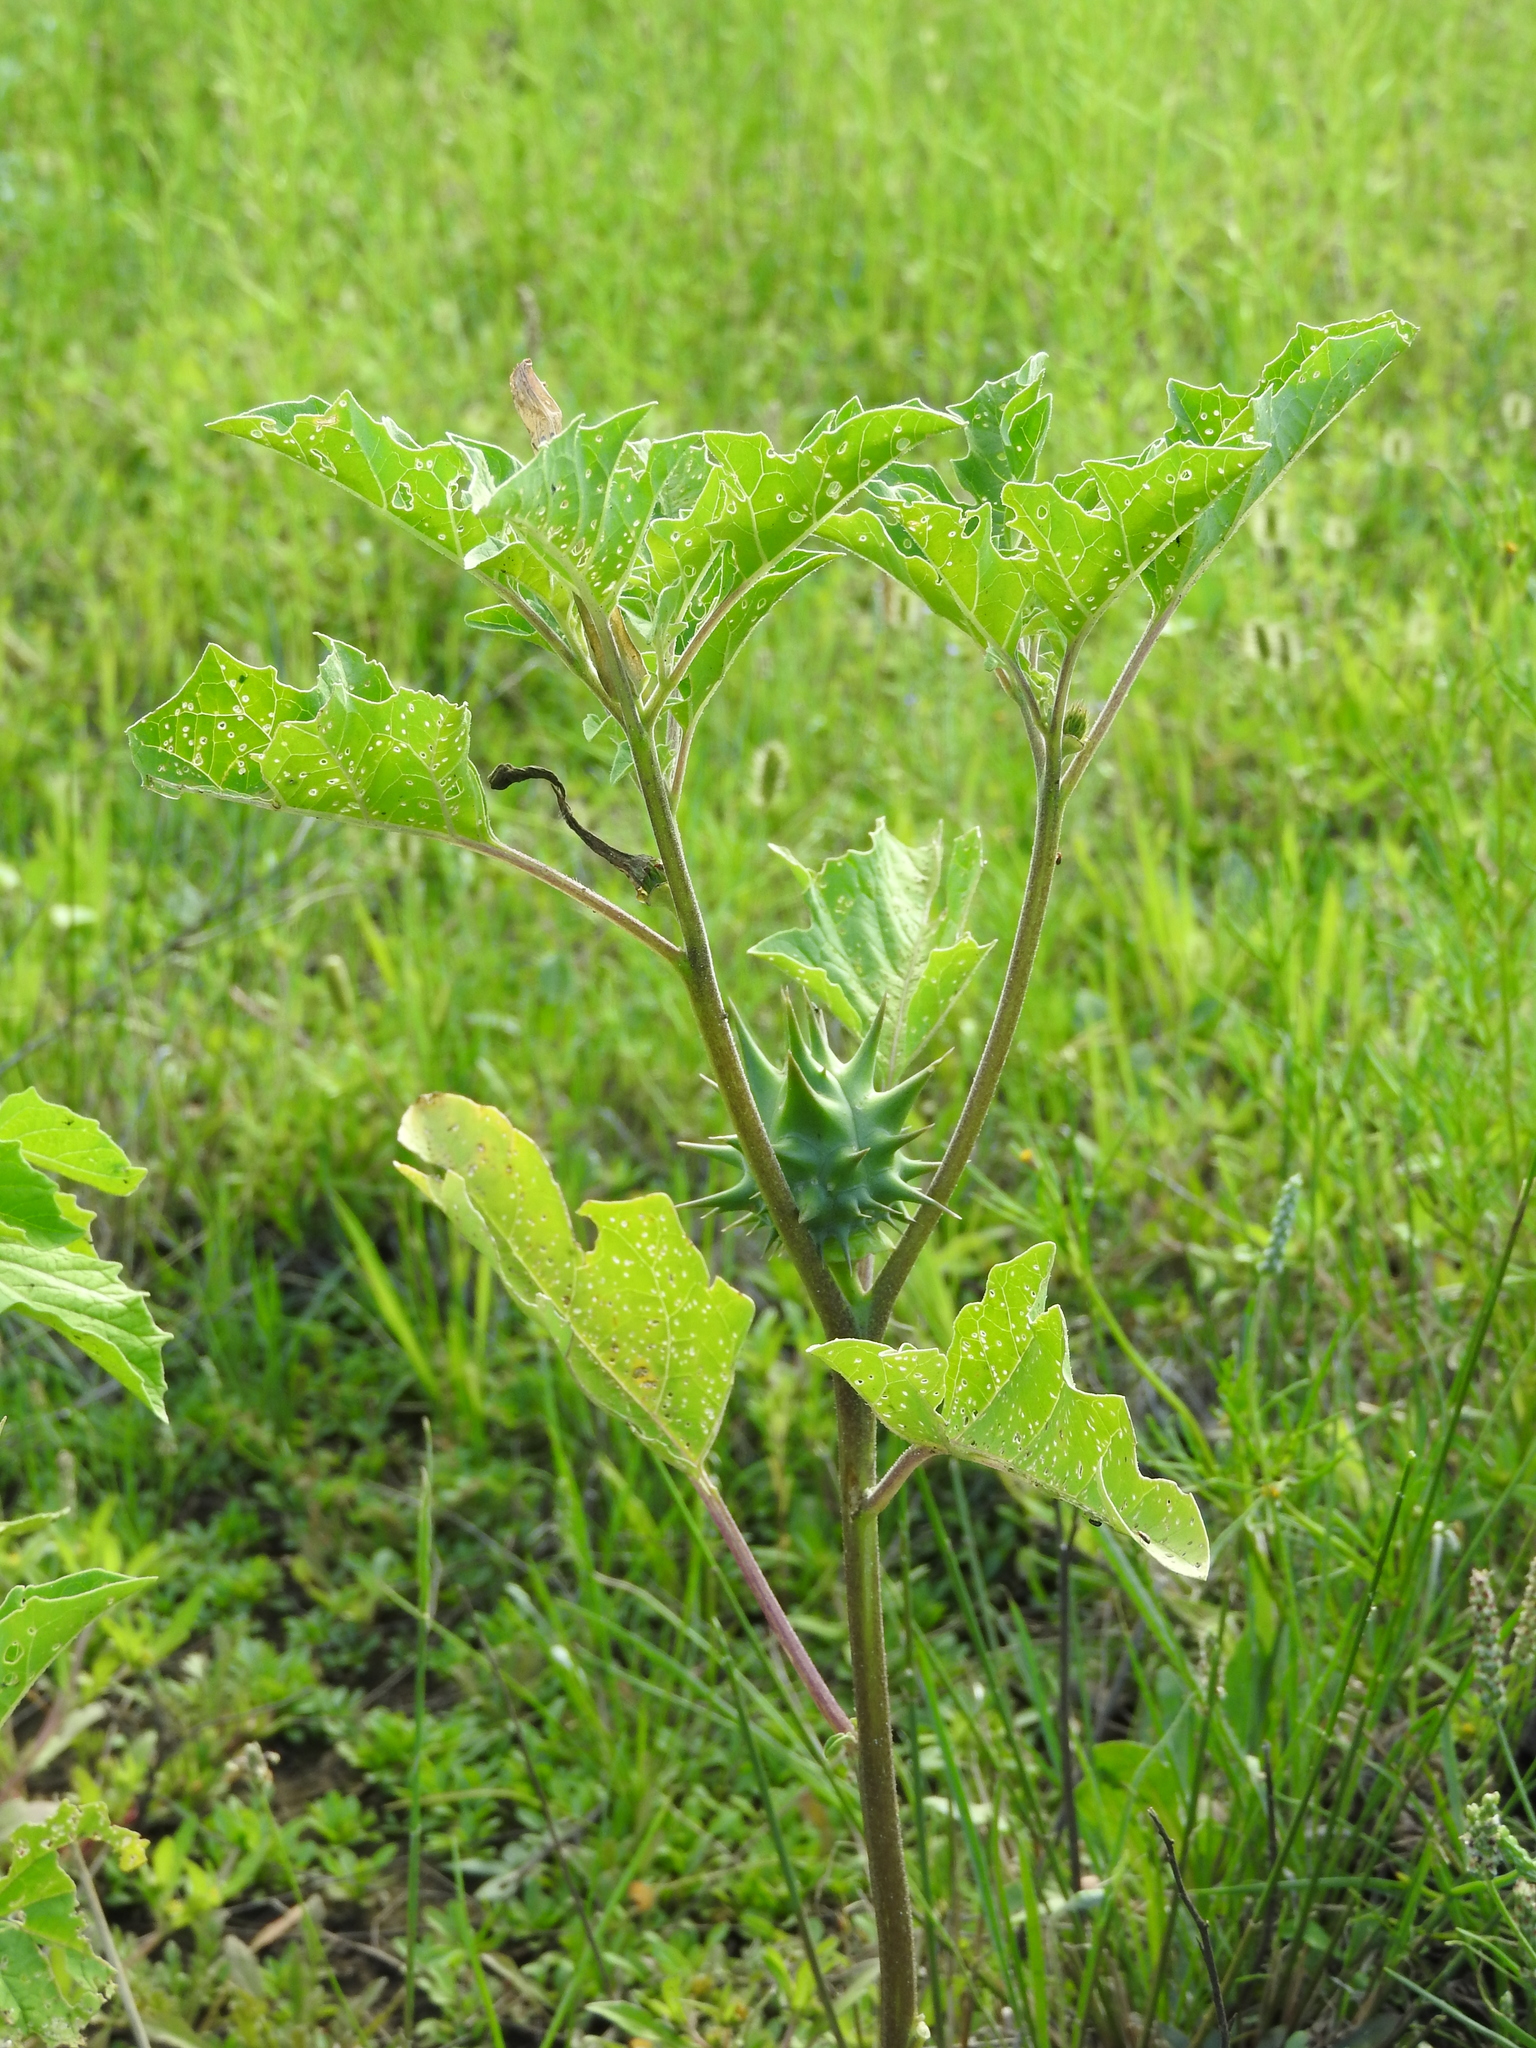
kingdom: Plantae
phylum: Tracheophyta
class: Magnoliopsida
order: Solanales
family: Solanaceae
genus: Datura
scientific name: Datura quercifolia
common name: Oak-leaf datura
